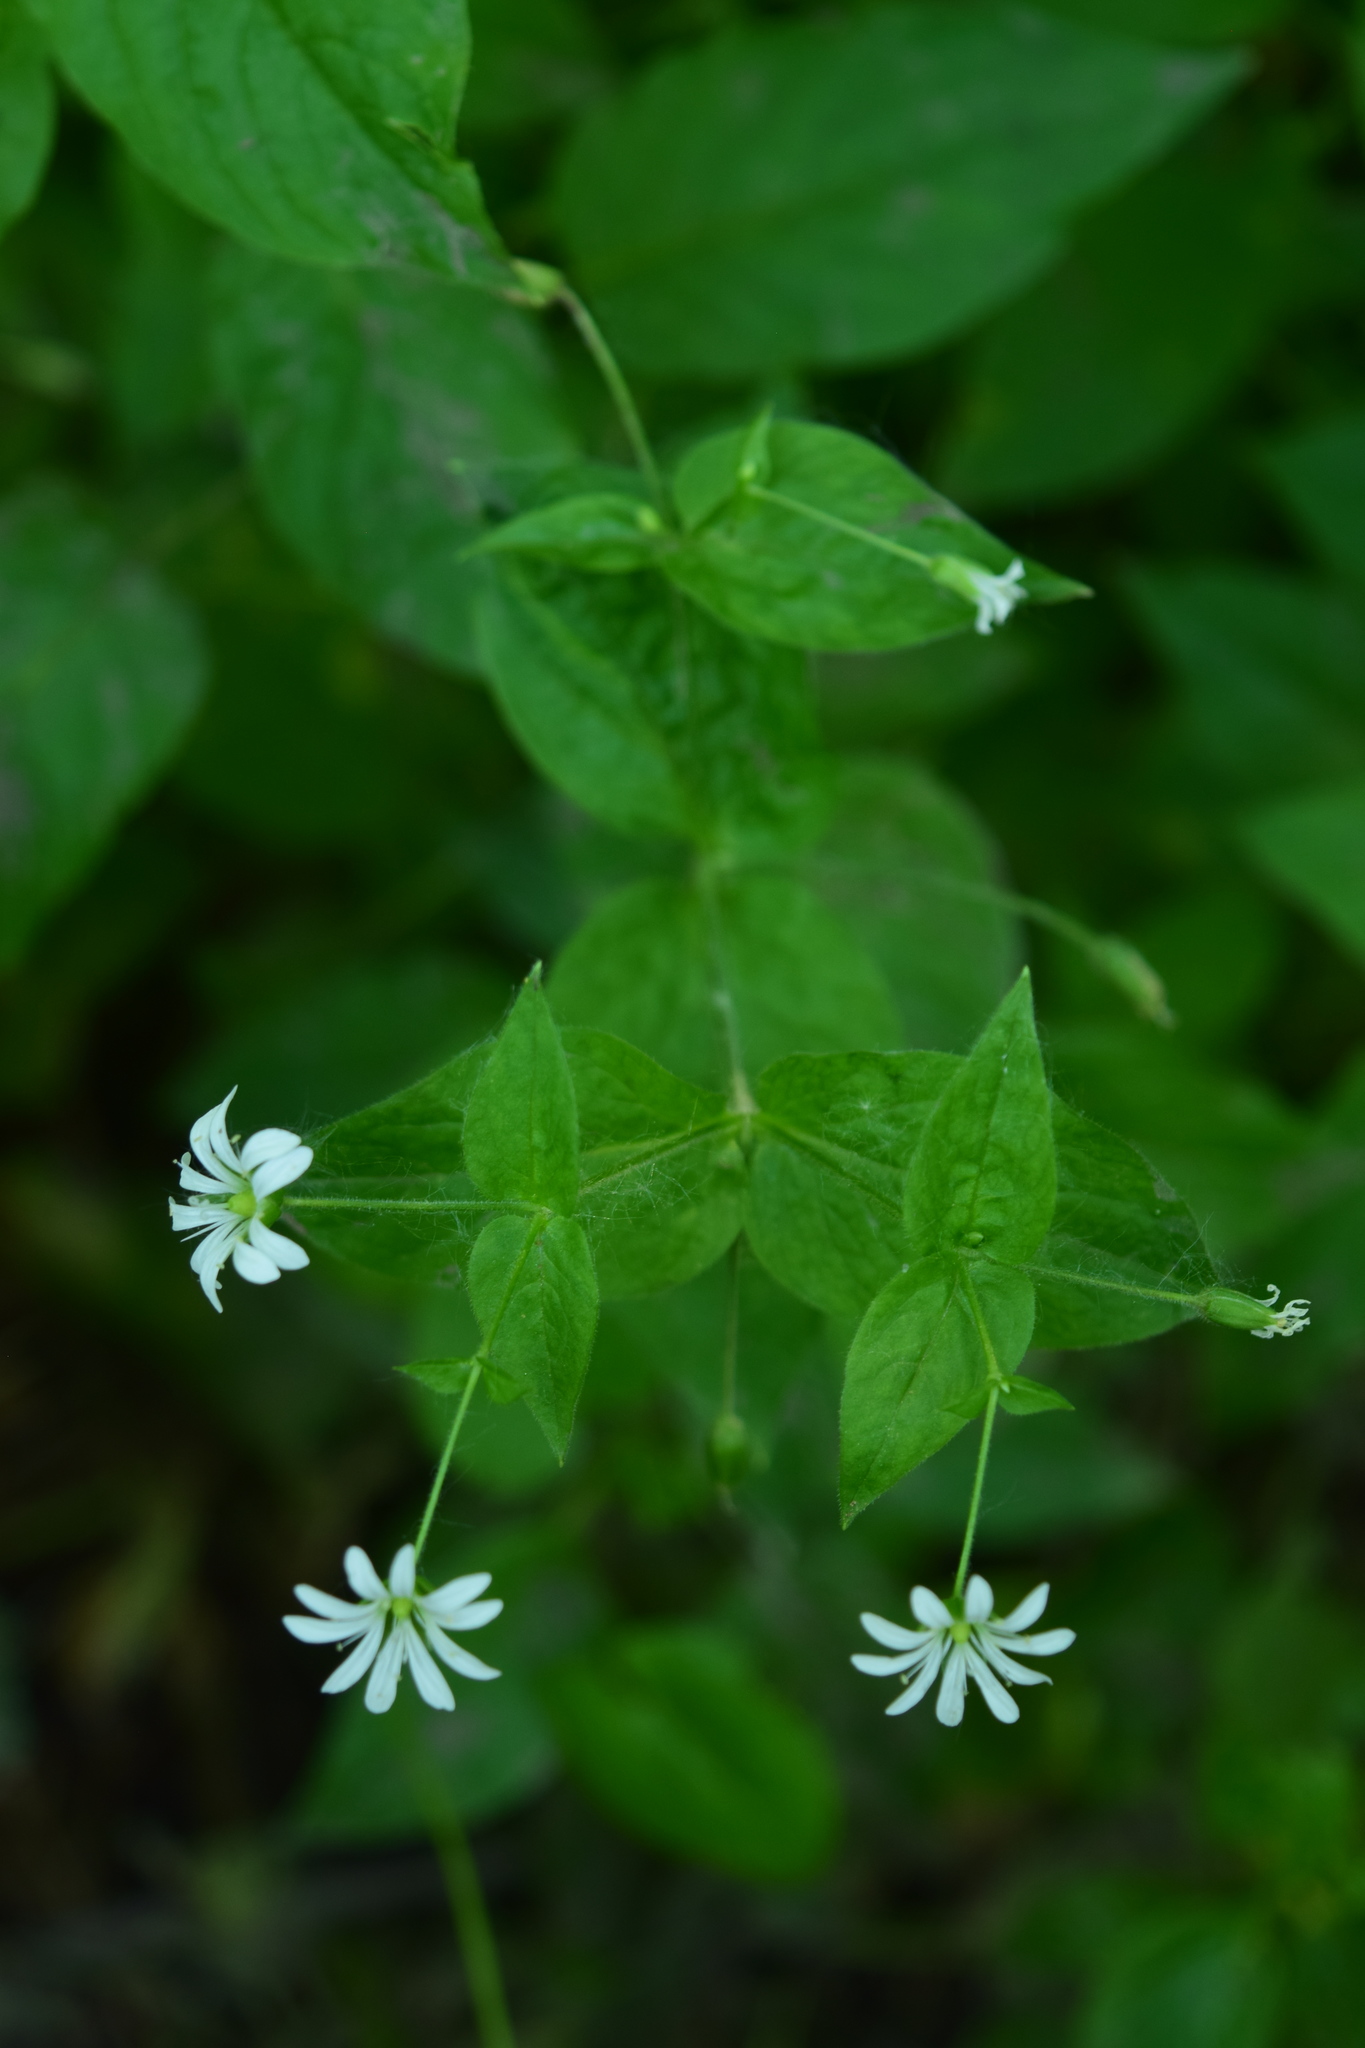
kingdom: Plantae
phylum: Tracheophyta
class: Magnoliopsida
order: Caryophyllales
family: Caryophyllaceae
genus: Stellaria
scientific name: Stellaria nemorum
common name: Wood stitchwort
